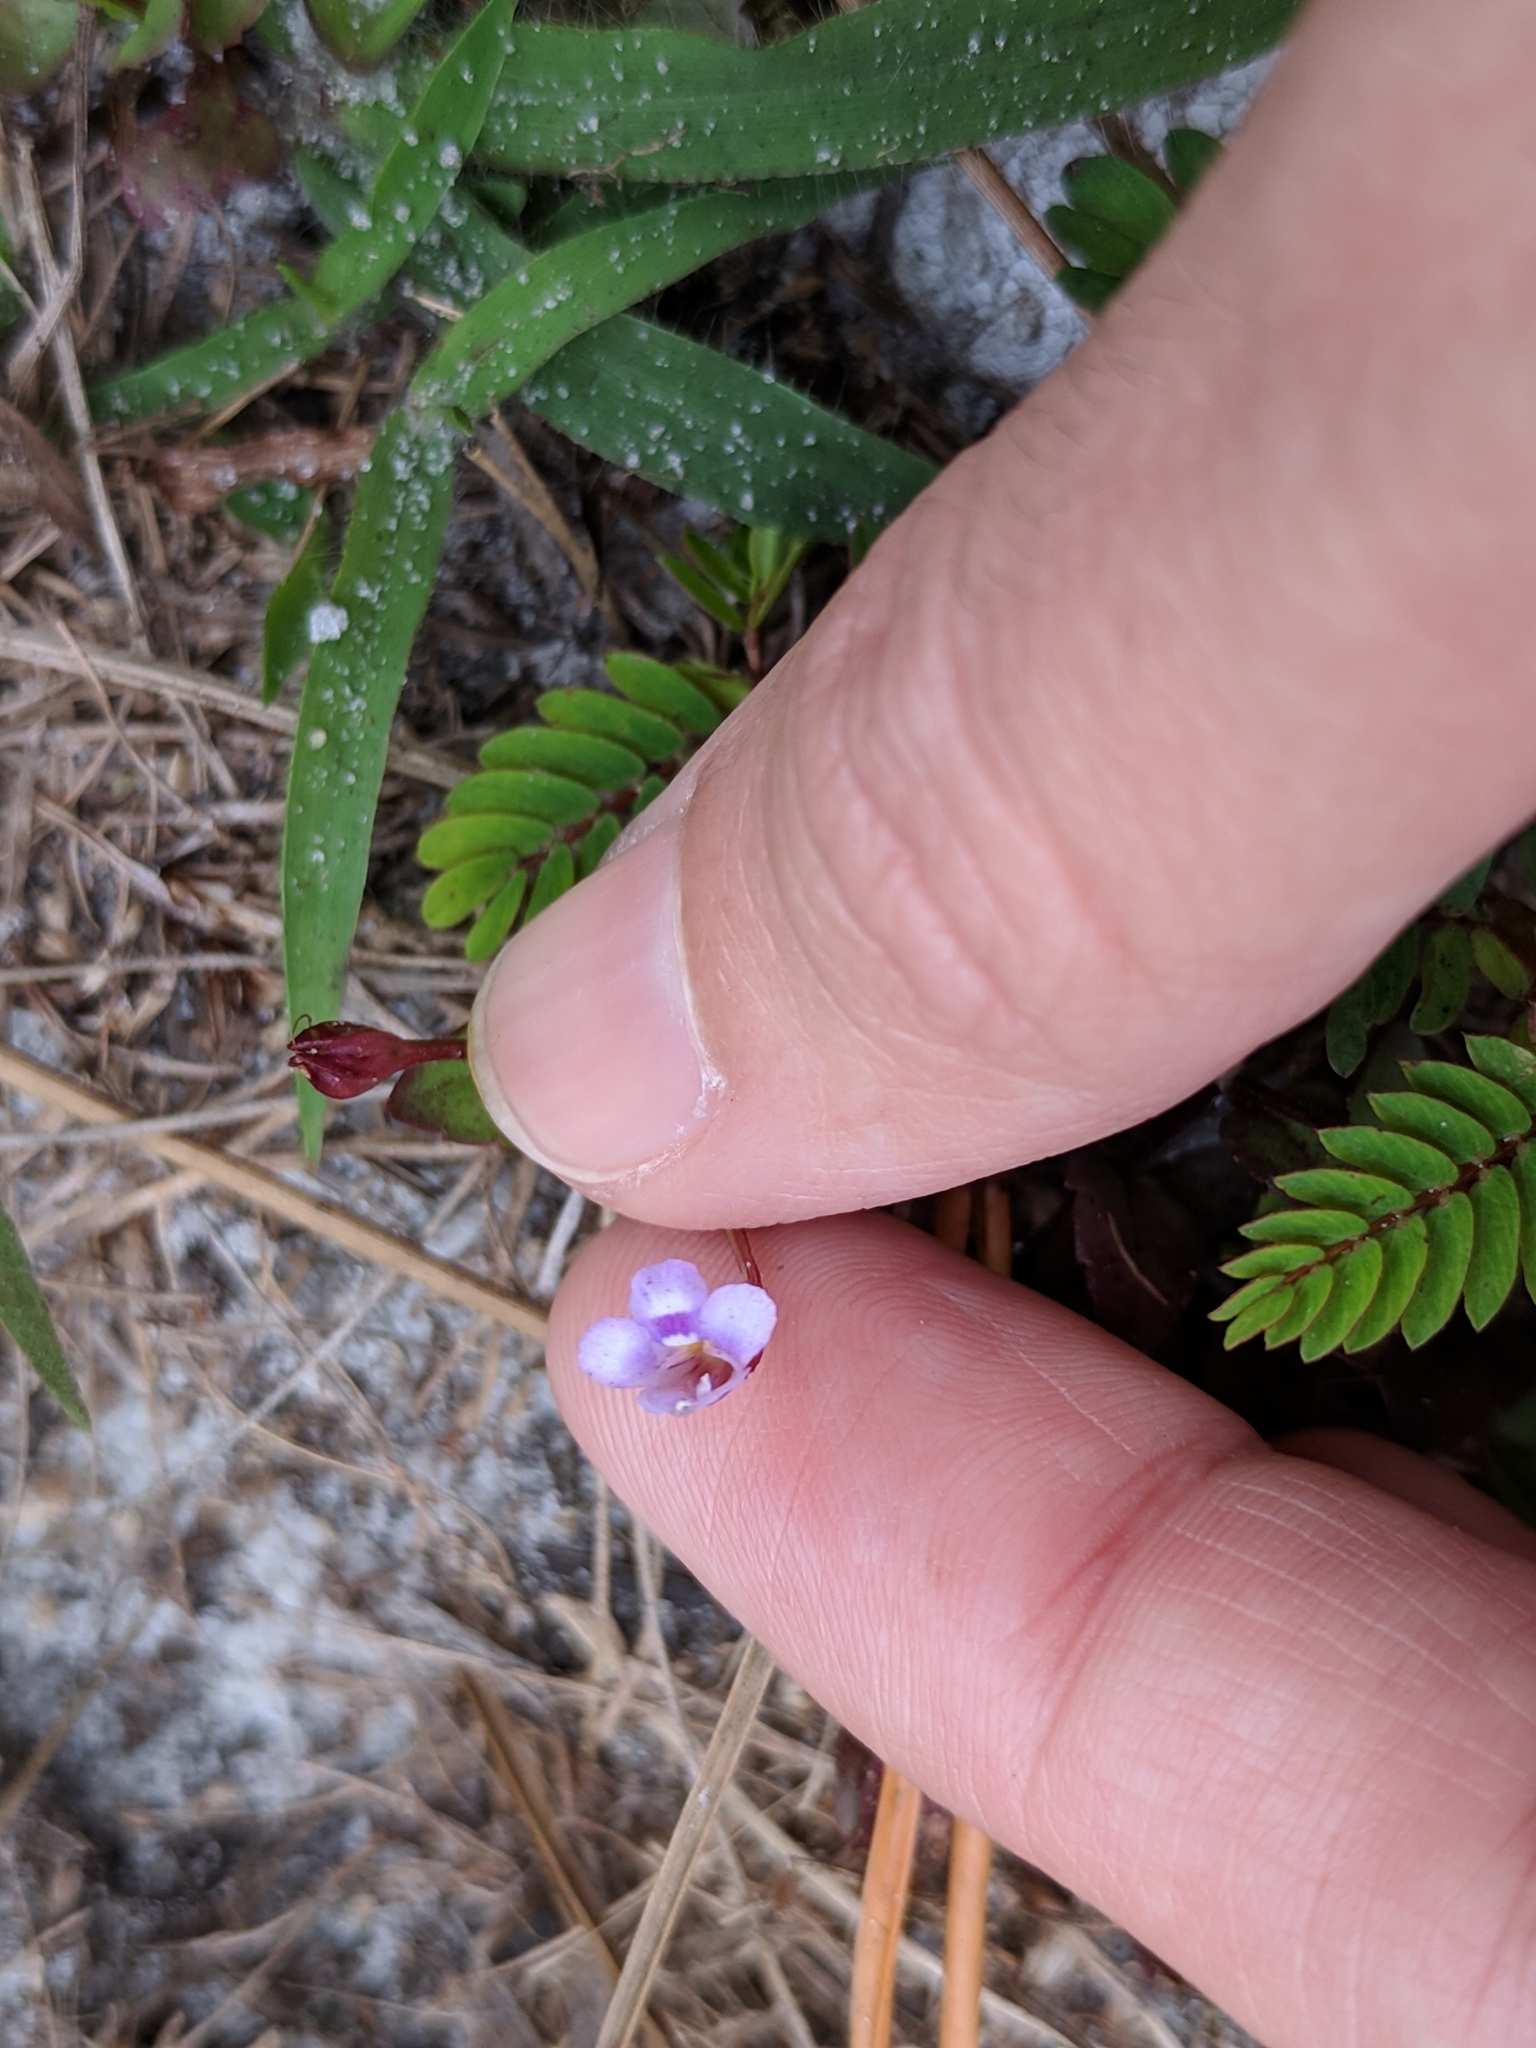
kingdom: Plantae
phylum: Tracheophyta
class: Magnoliopsida
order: Lamiales
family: Linderniaceae
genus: Torenia
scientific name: Torenia crustacea
